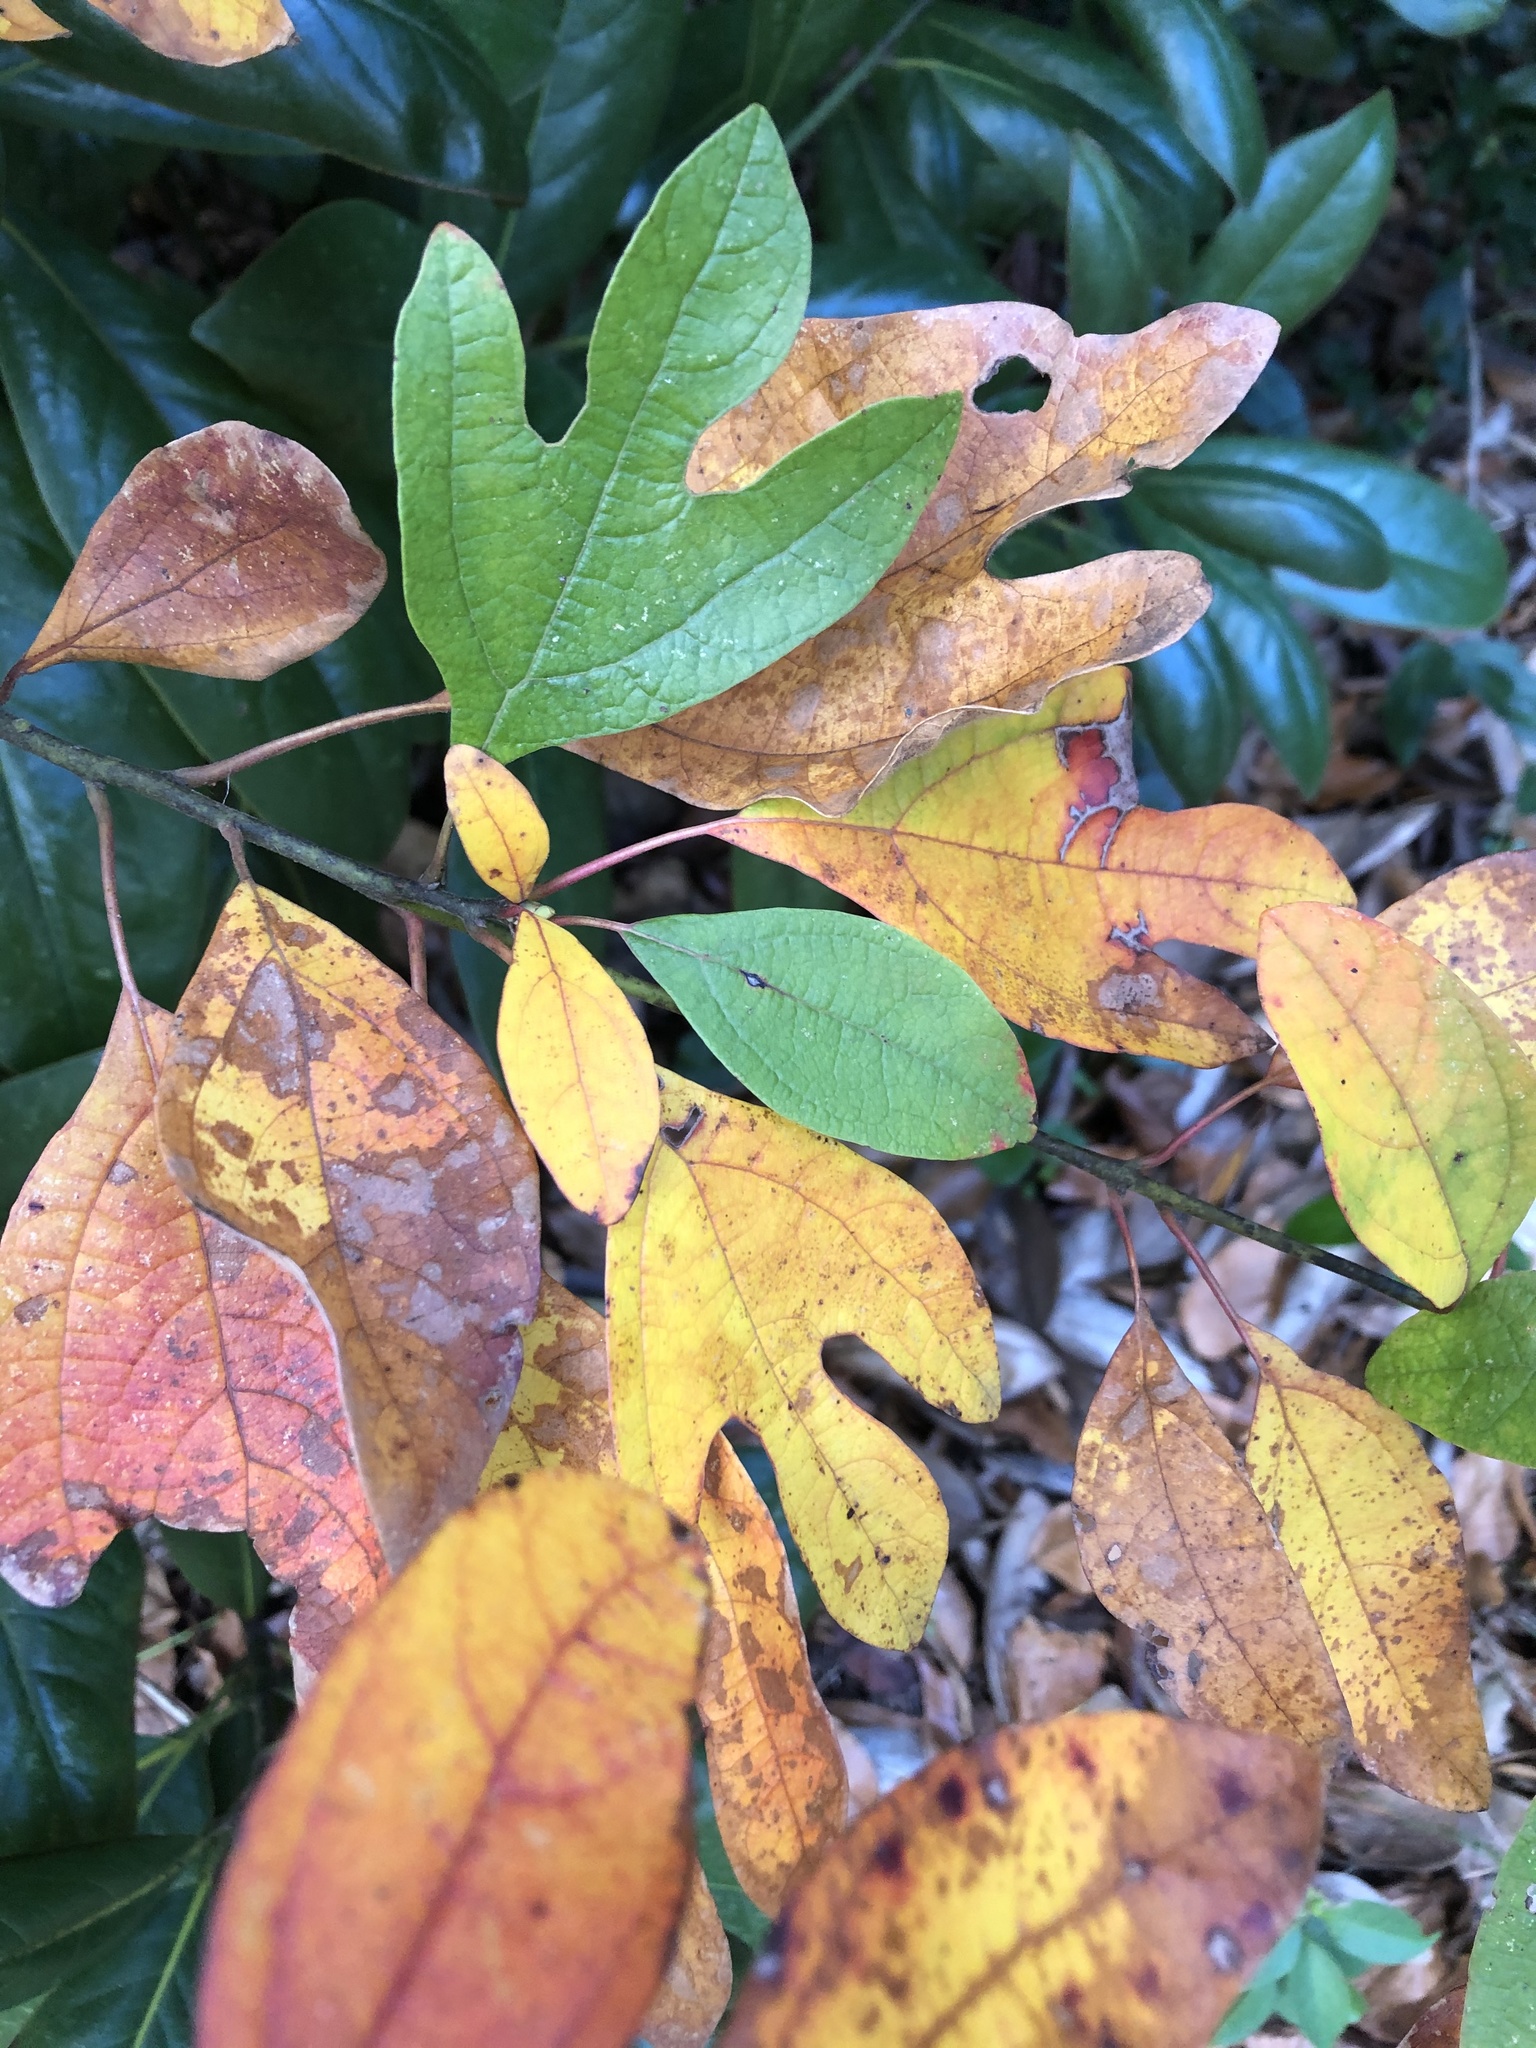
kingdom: Plantae
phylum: Tracheophyta
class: Magnoliopsida
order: Laurales
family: Lauraceae
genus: Sassafras
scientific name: Sassafras albidum
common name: Sassafras
